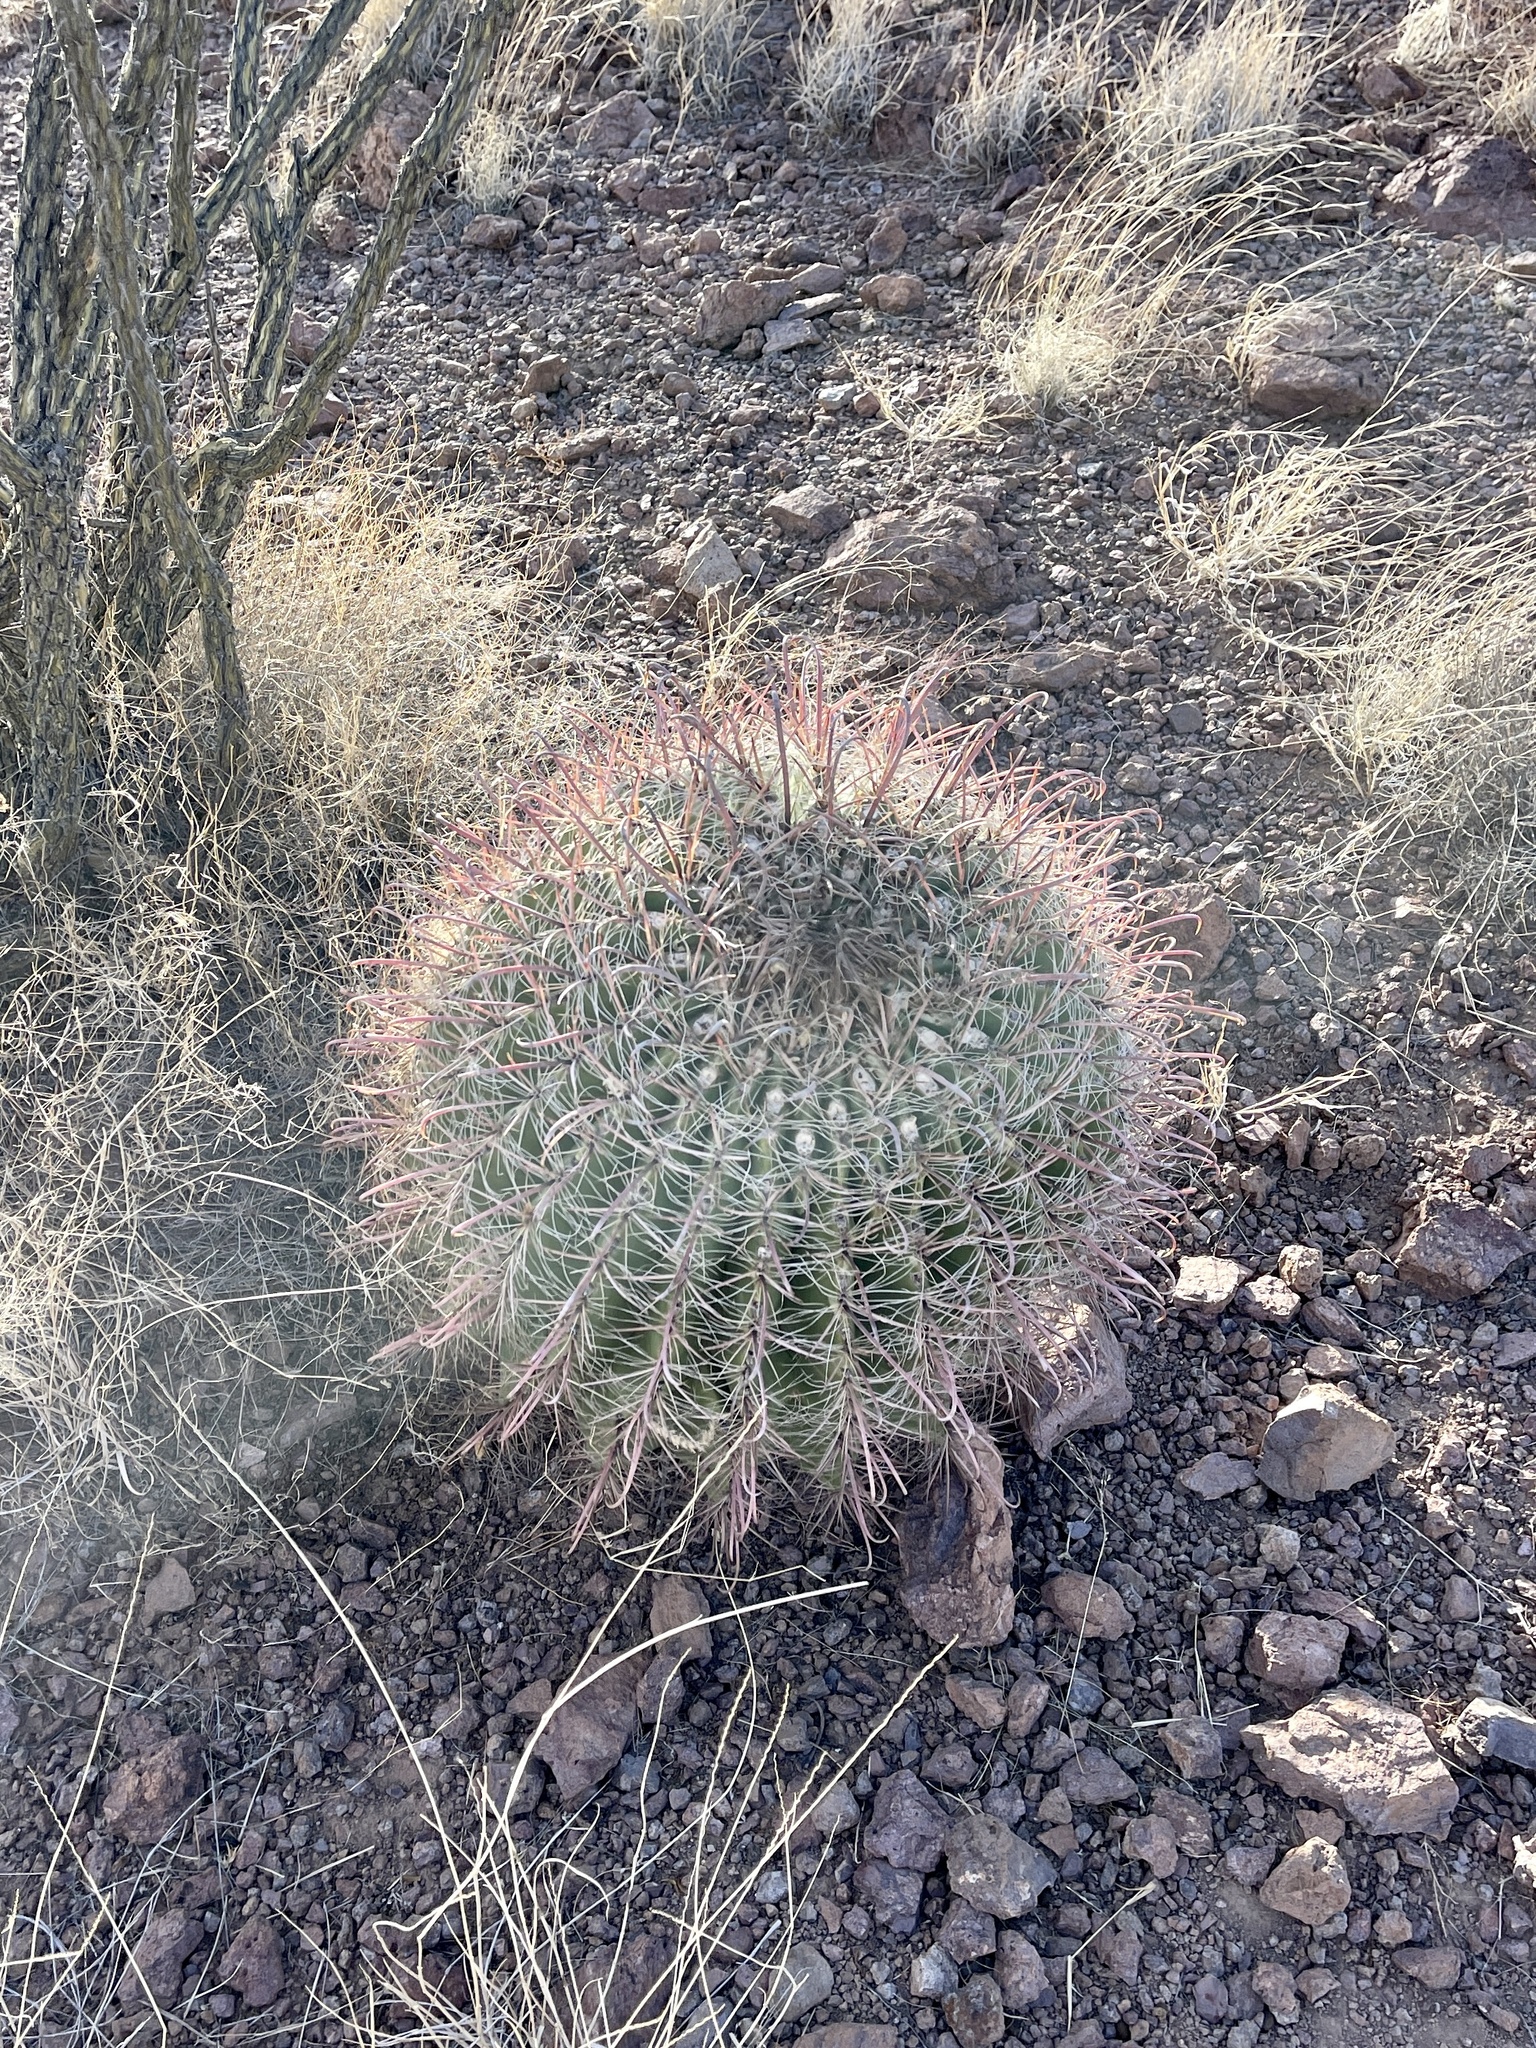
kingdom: Plantae
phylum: Tracheophyta
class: Magnoliopsida
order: Caryophyllales
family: Cactaceae
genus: Ferocactus
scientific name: Ferocactus wislizeni
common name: Candy barrel cactus
